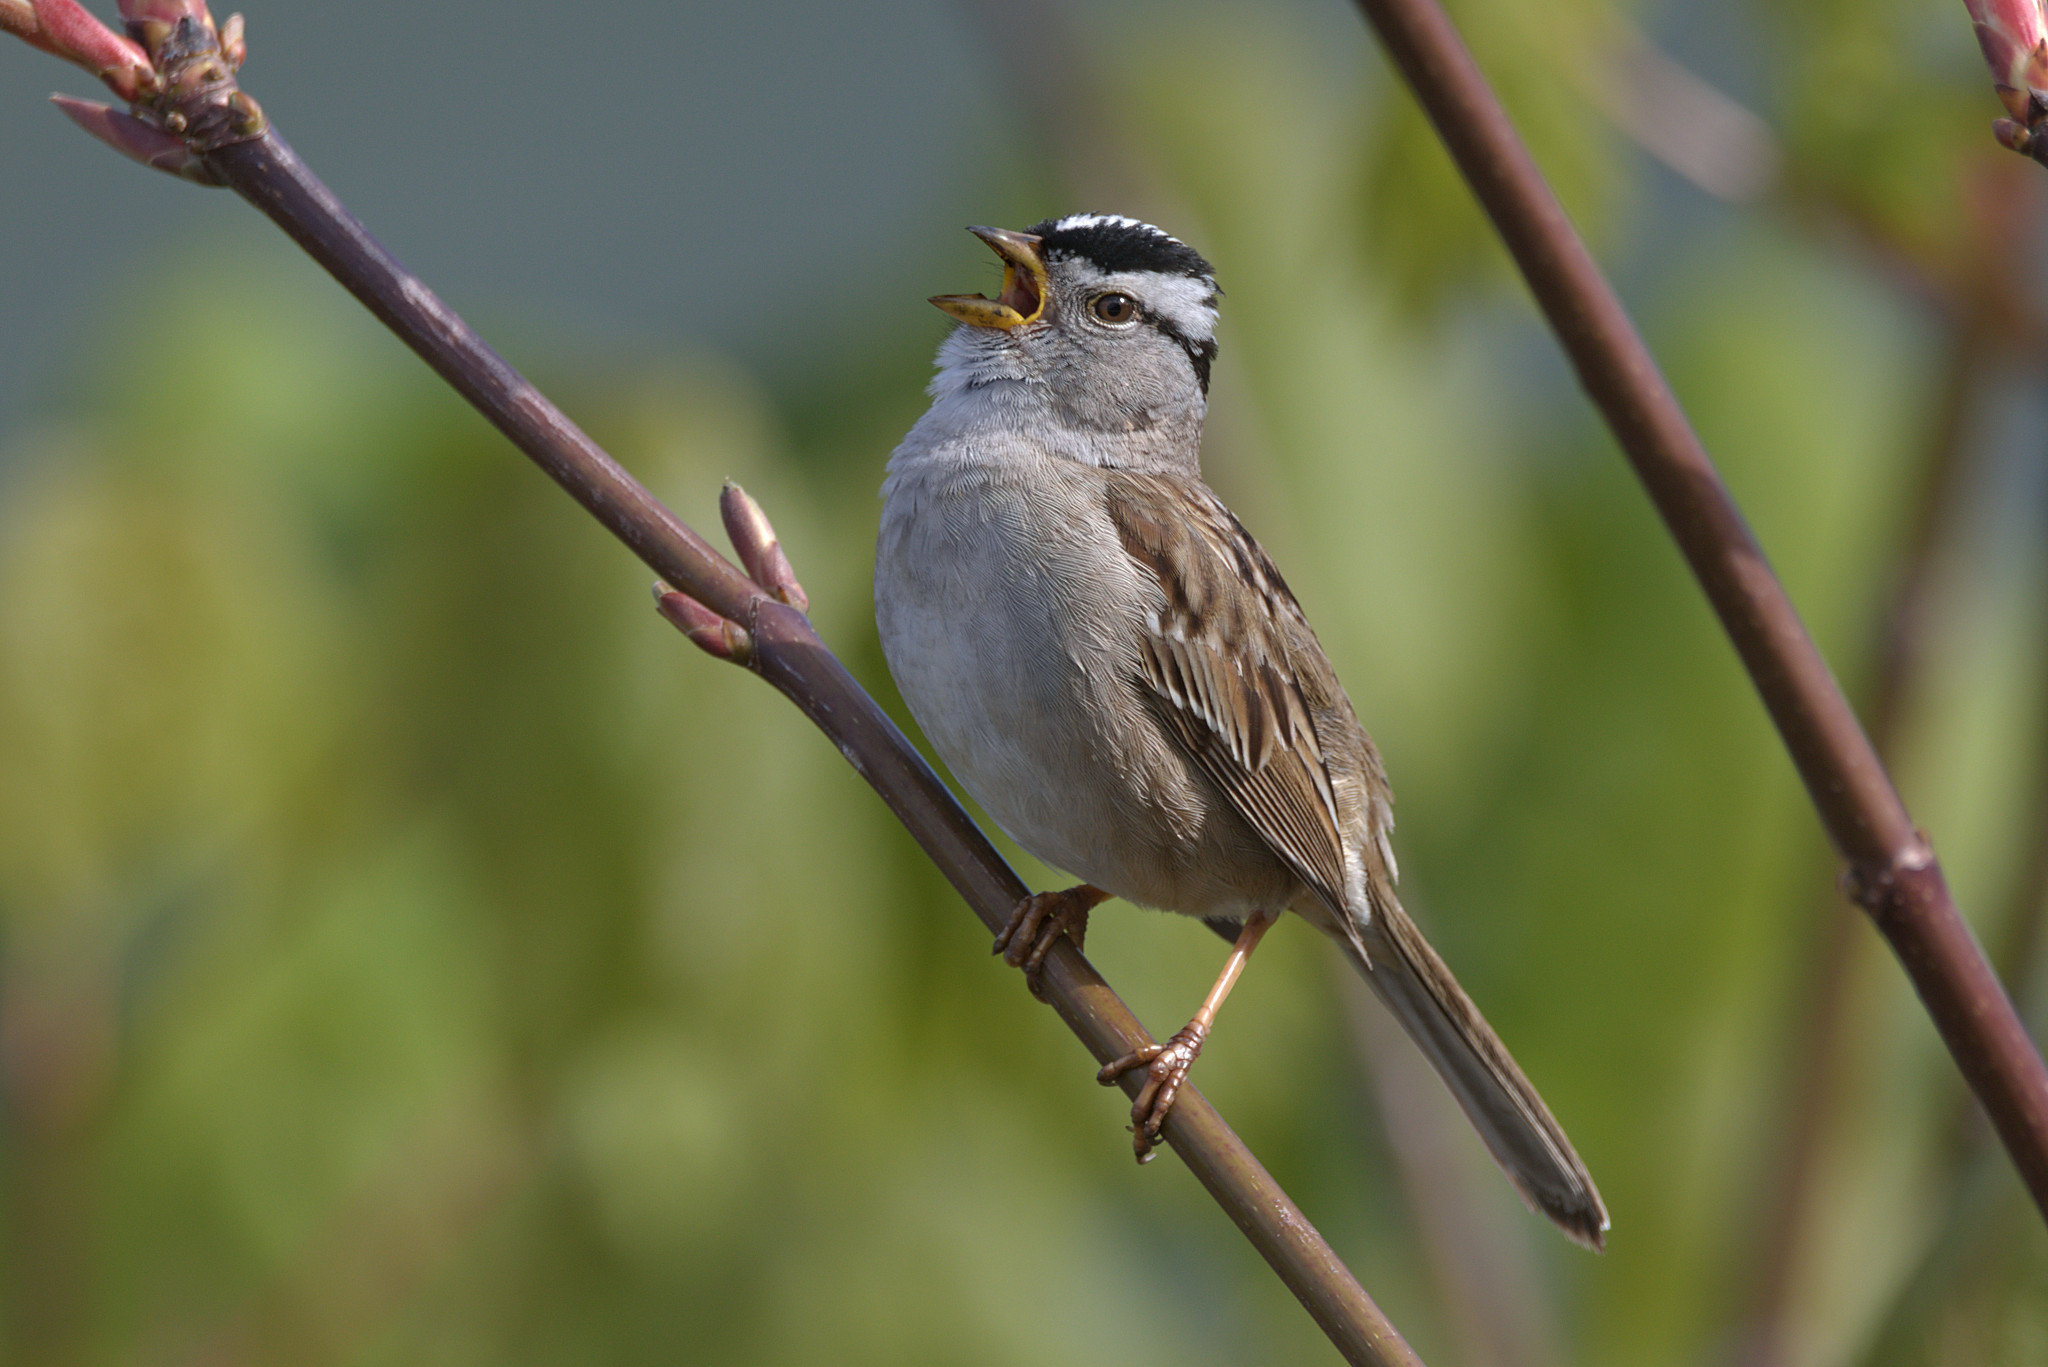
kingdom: Animalia
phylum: Chordata
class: Aves
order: Passeriformes
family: Passerellidae
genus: Zonotrichia
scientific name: Zonotrichia leucophrys
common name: White-crowned sparrow
